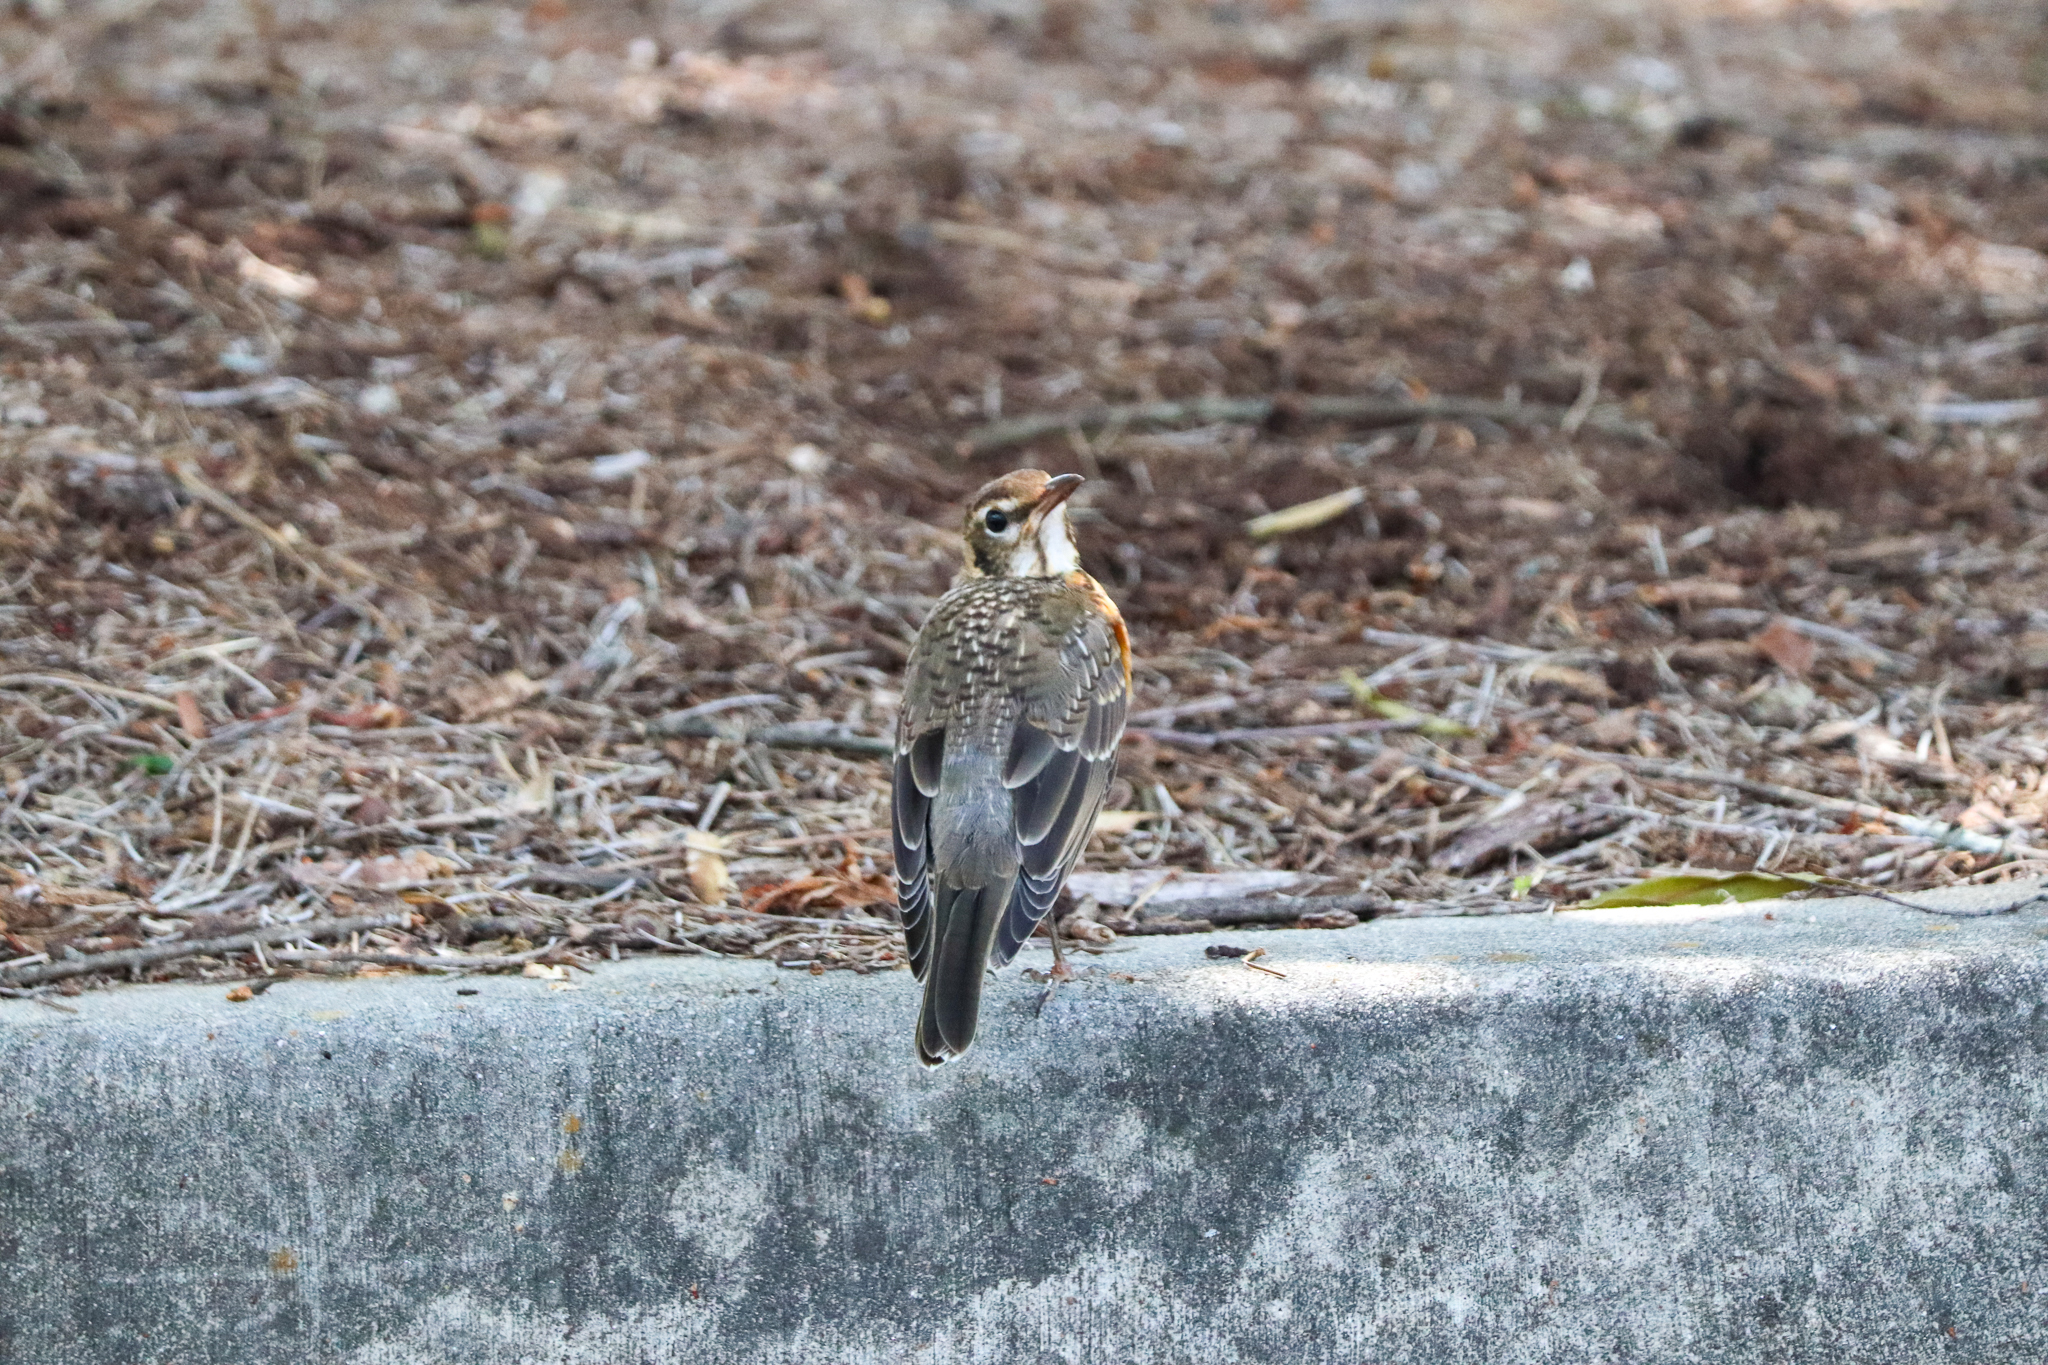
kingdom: Animalia
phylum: Chordata
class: Aves
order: Passeriformes
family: Turdidae
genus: Turdus
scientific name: Turdus migratorius
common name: American robin
